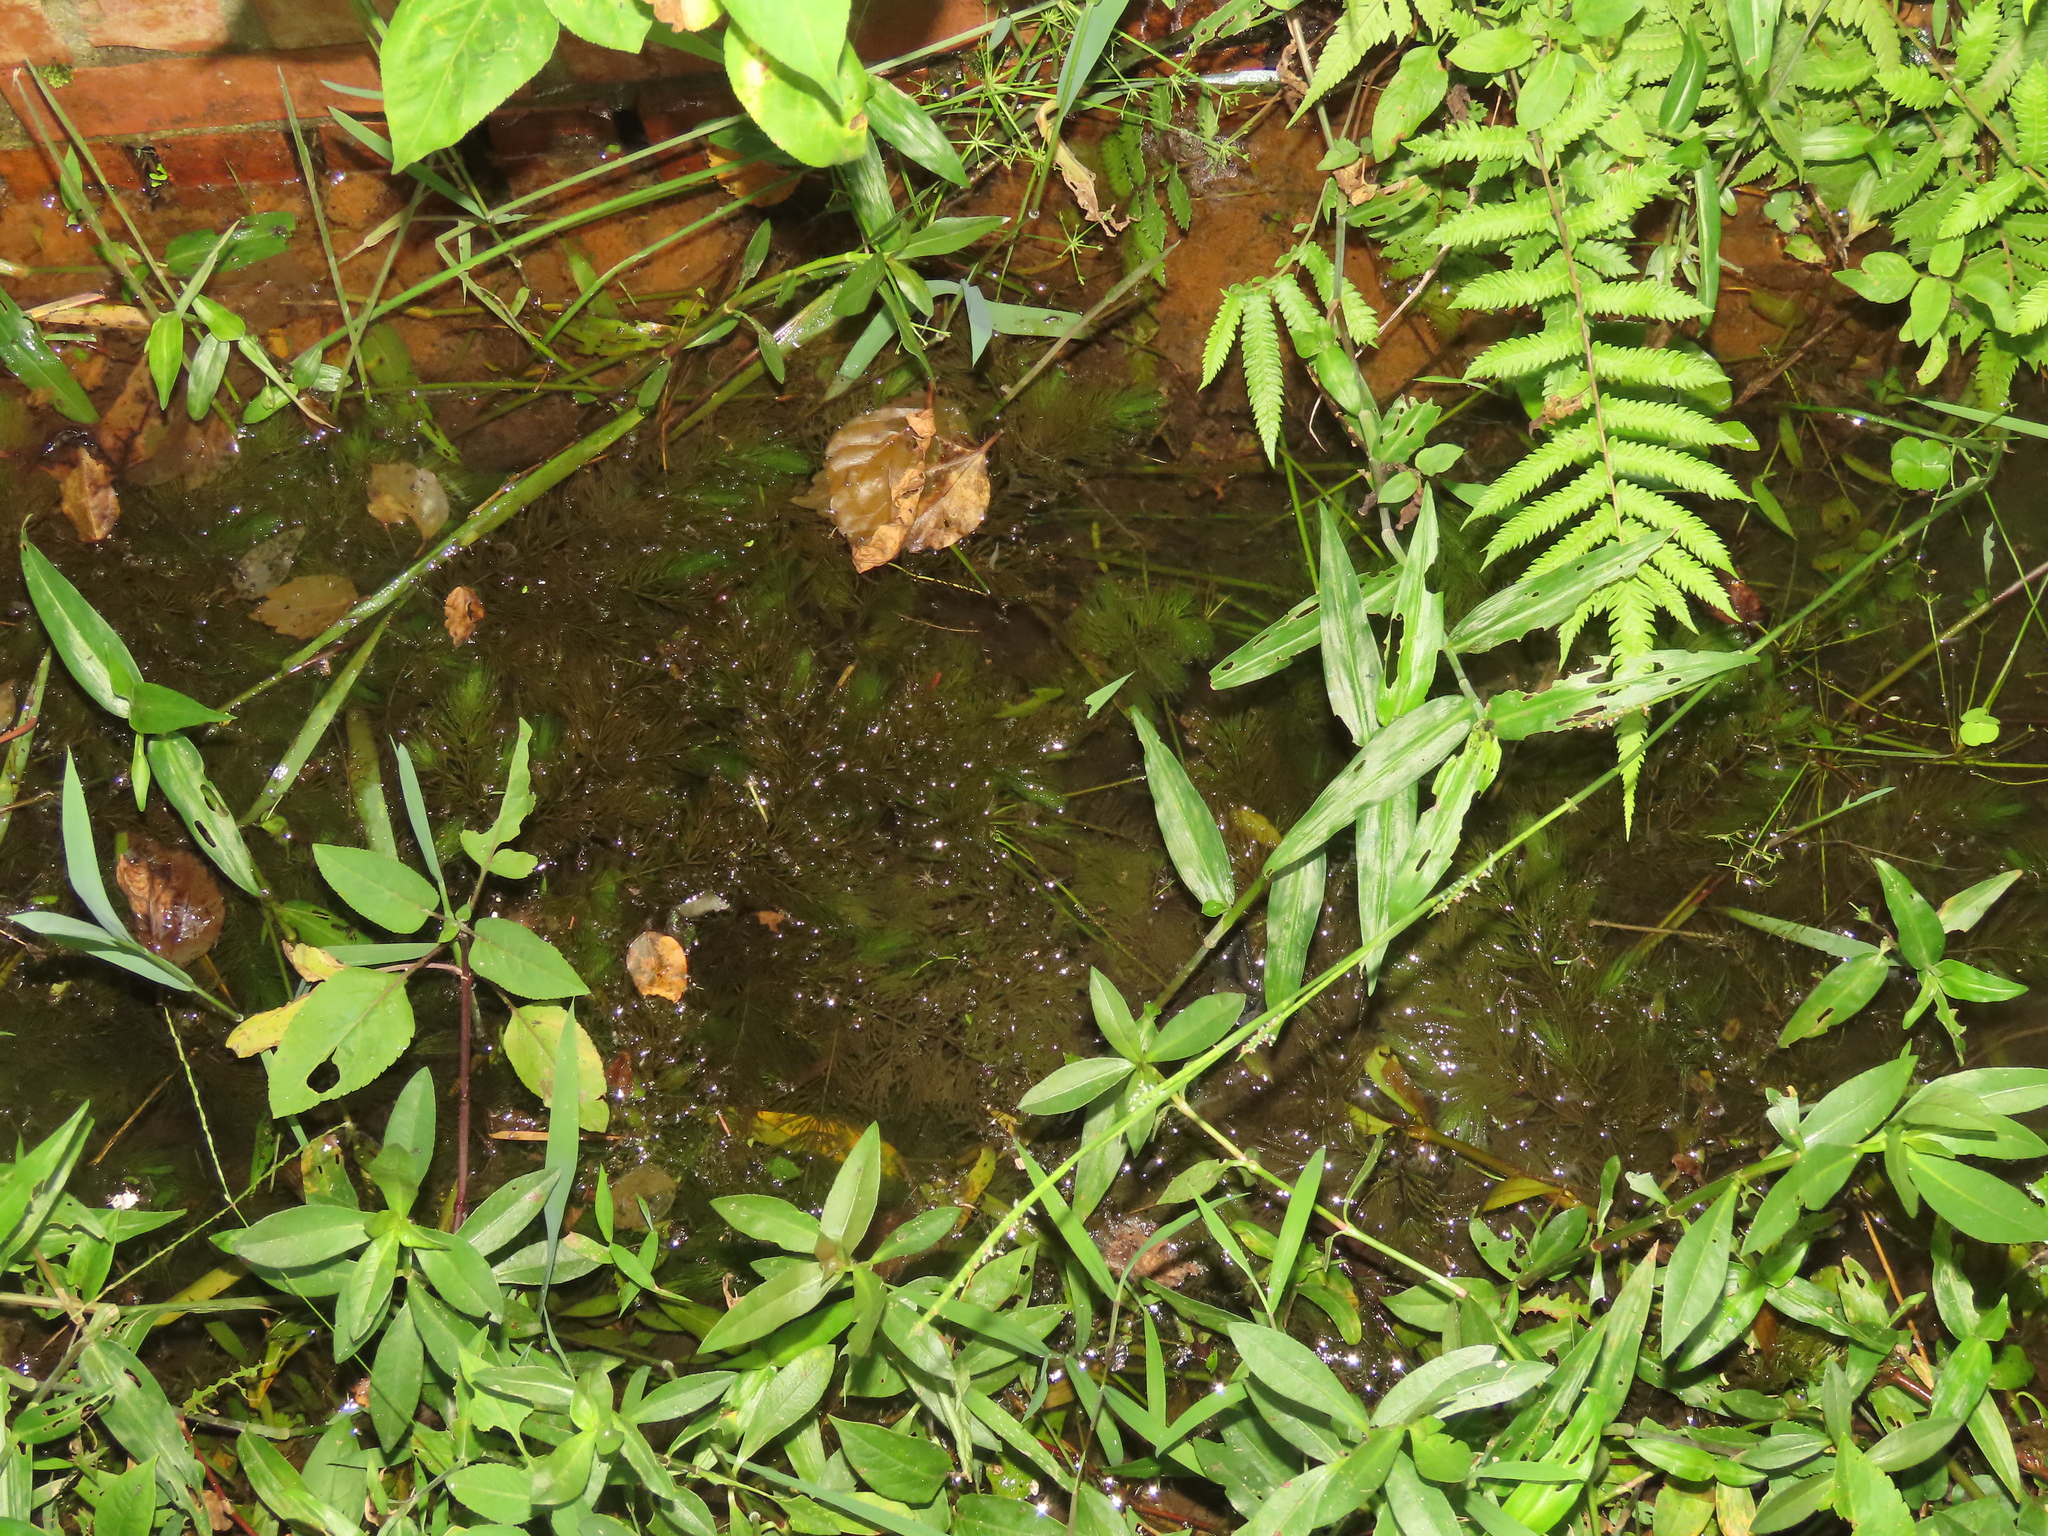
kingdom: Plantae
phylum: Tracheophyta
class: Magnoliopsida
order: Ceratophyllales
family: Ceratophyllaceae
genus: Ceratophyllum
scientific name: Ceratophyllum demersum
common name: Rigid hornwort
